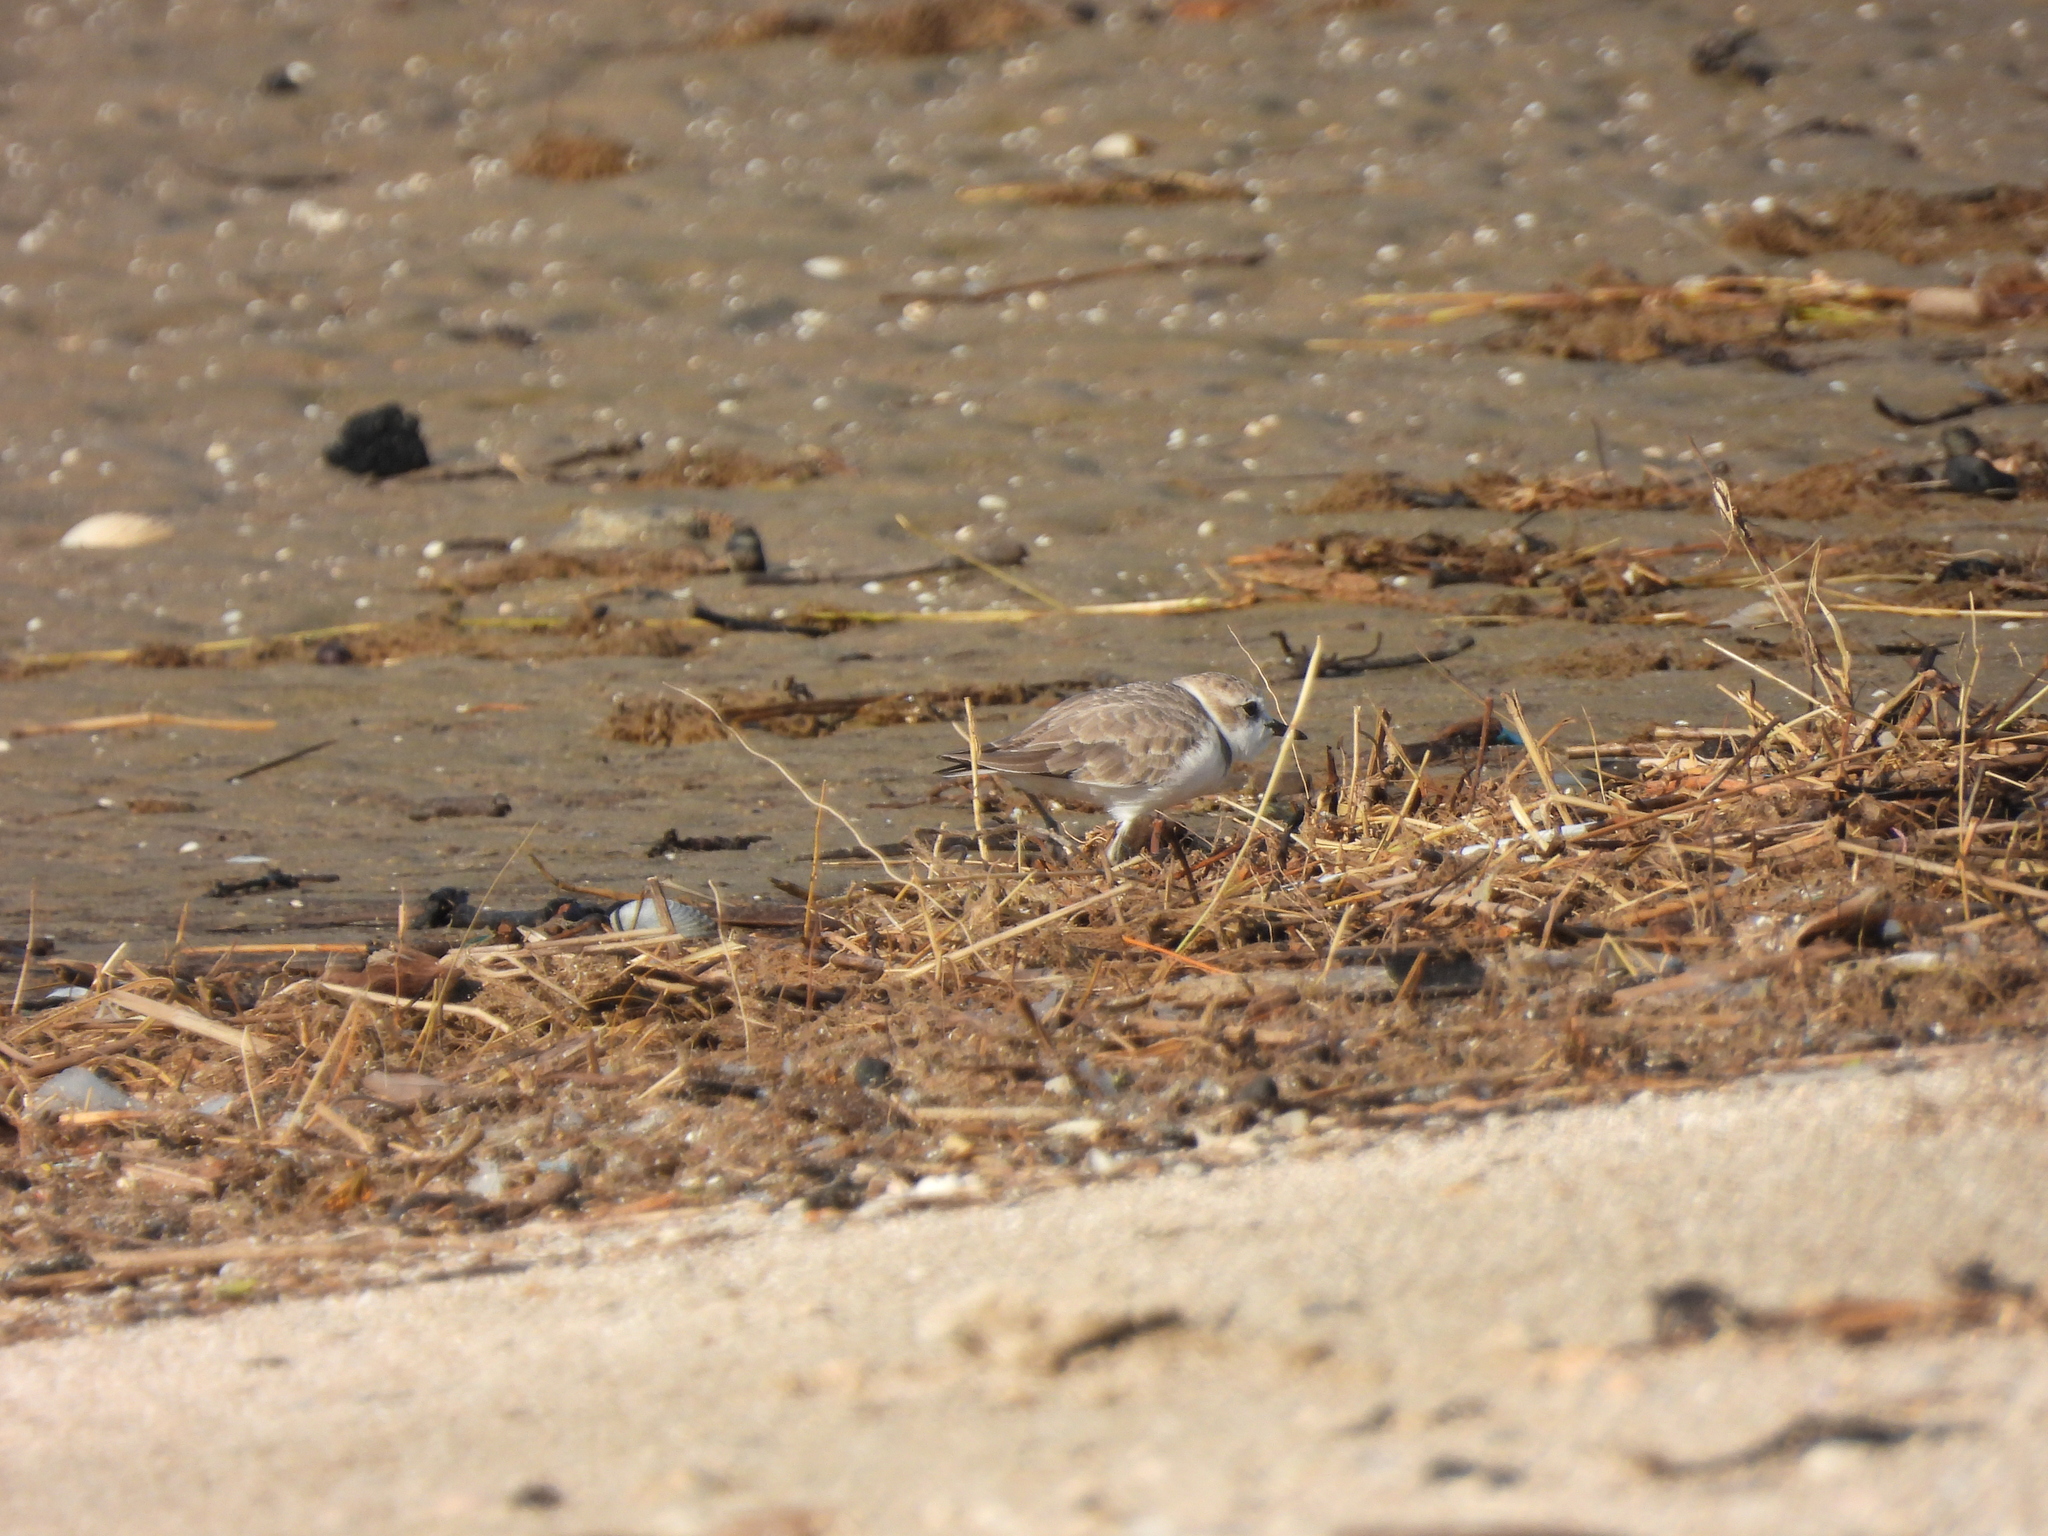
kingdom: Animalia
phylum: Chordata
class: Aves
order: Charadriiformes
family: Charadriidae
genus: Anarhynchus
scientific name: Anarhynchus
